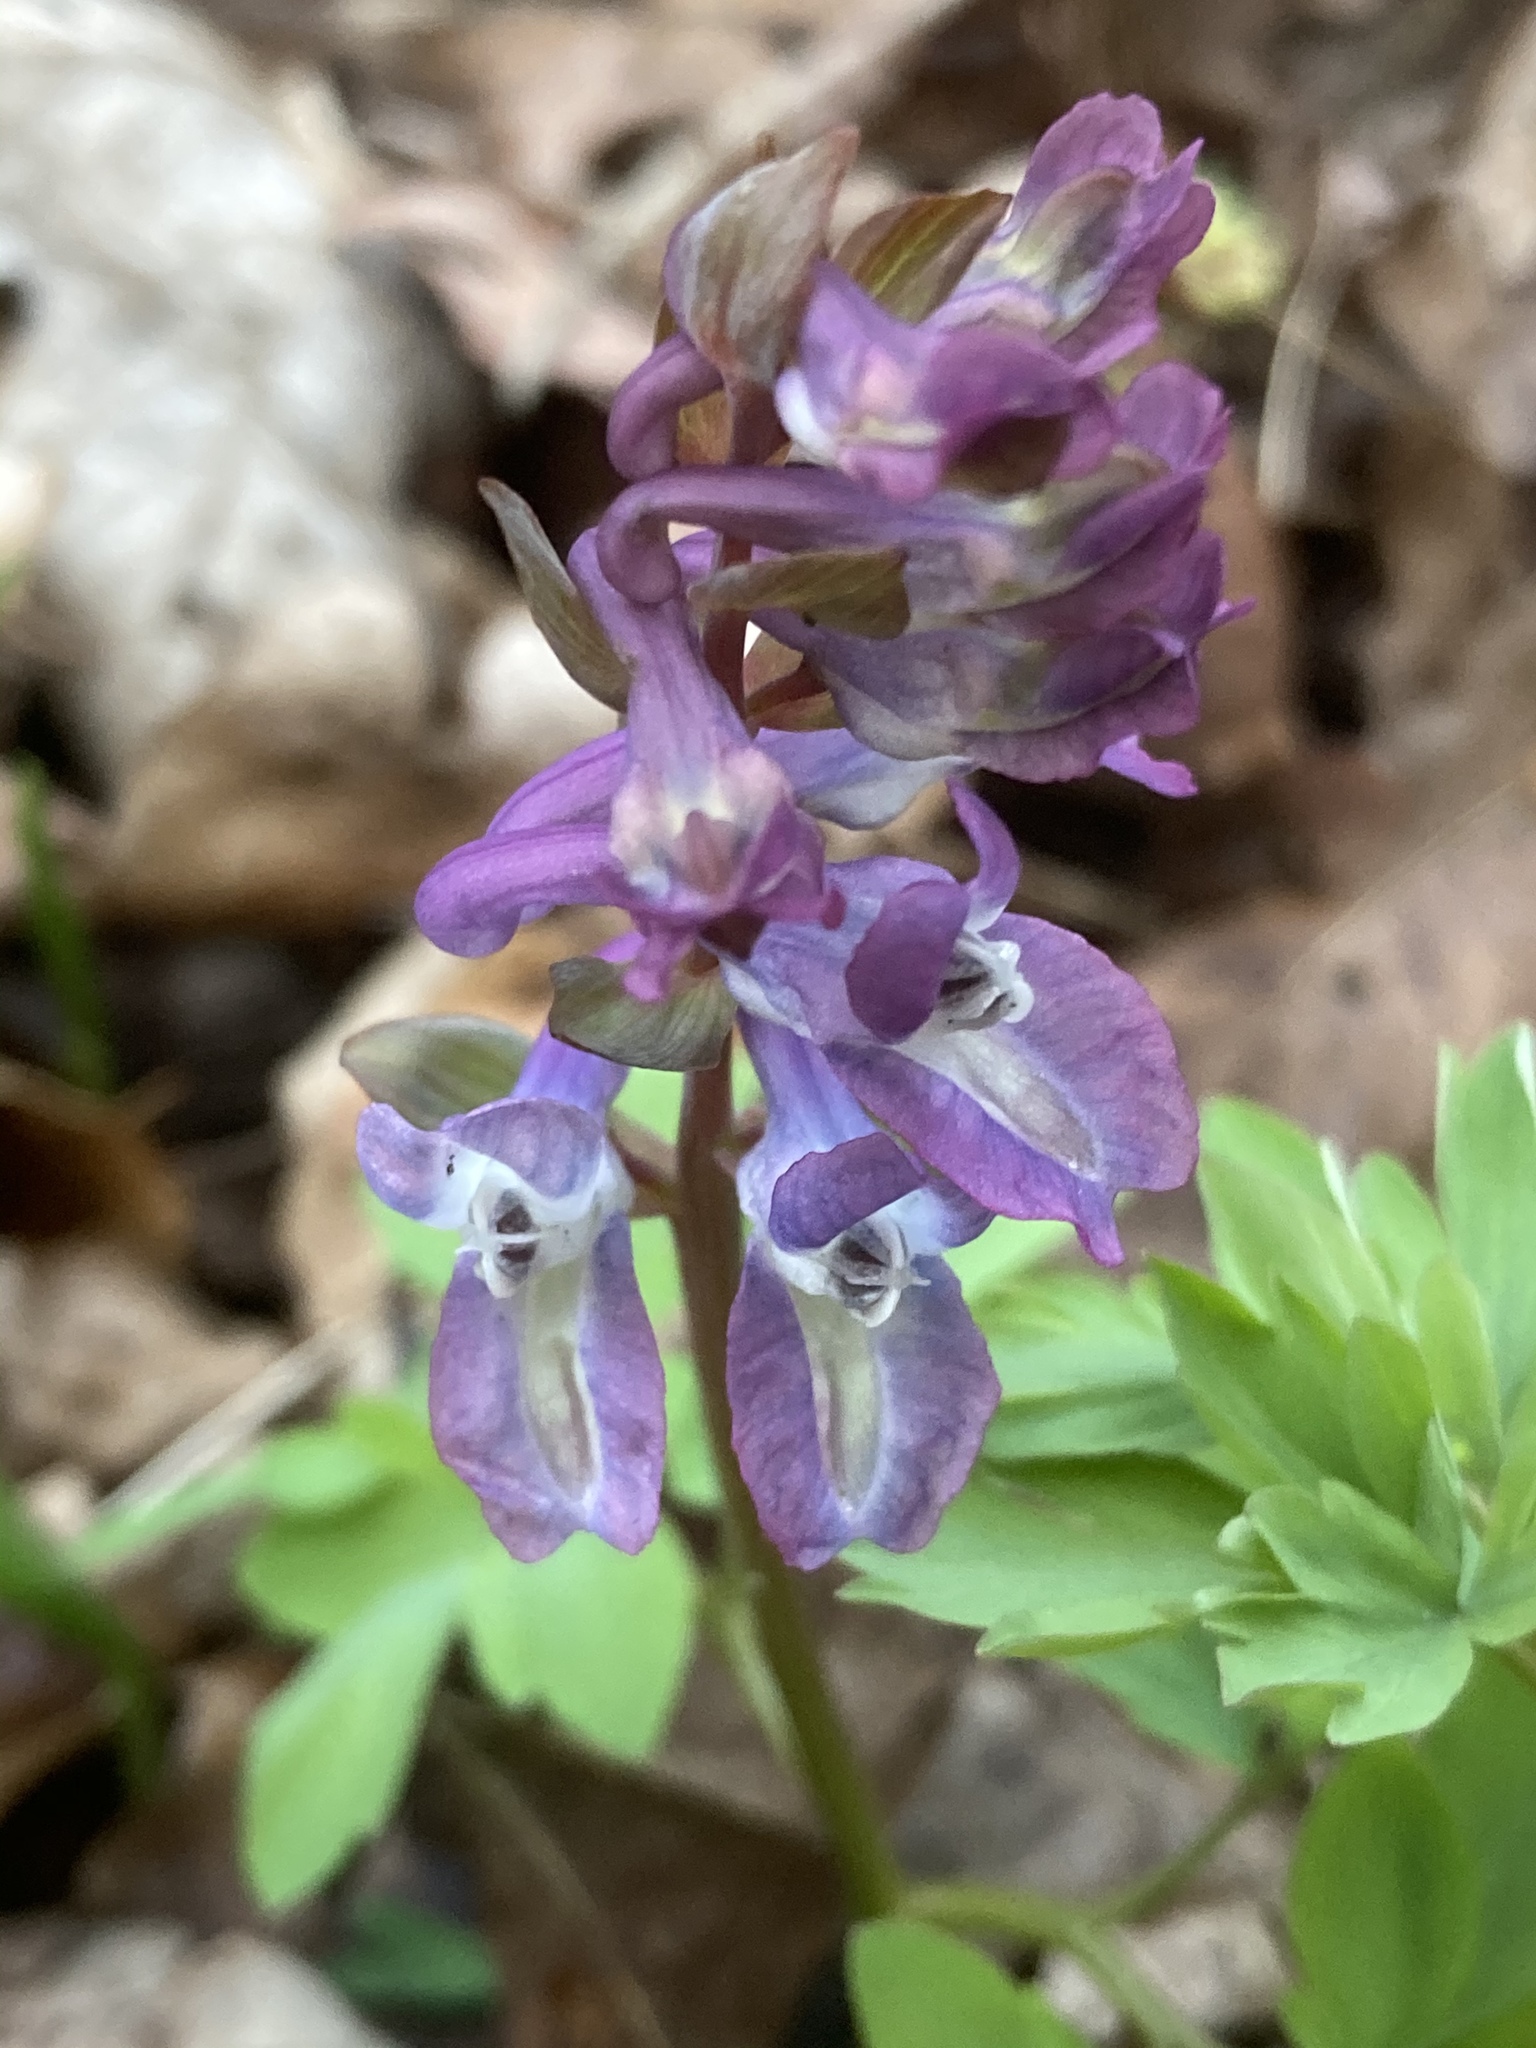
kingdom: Plantae
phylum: Tracheophyta
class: Magnoliopsida
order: Ranunculales
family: Papaveraceae
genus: Corydalis
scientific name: Corydalis cava
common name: Hollowroot
